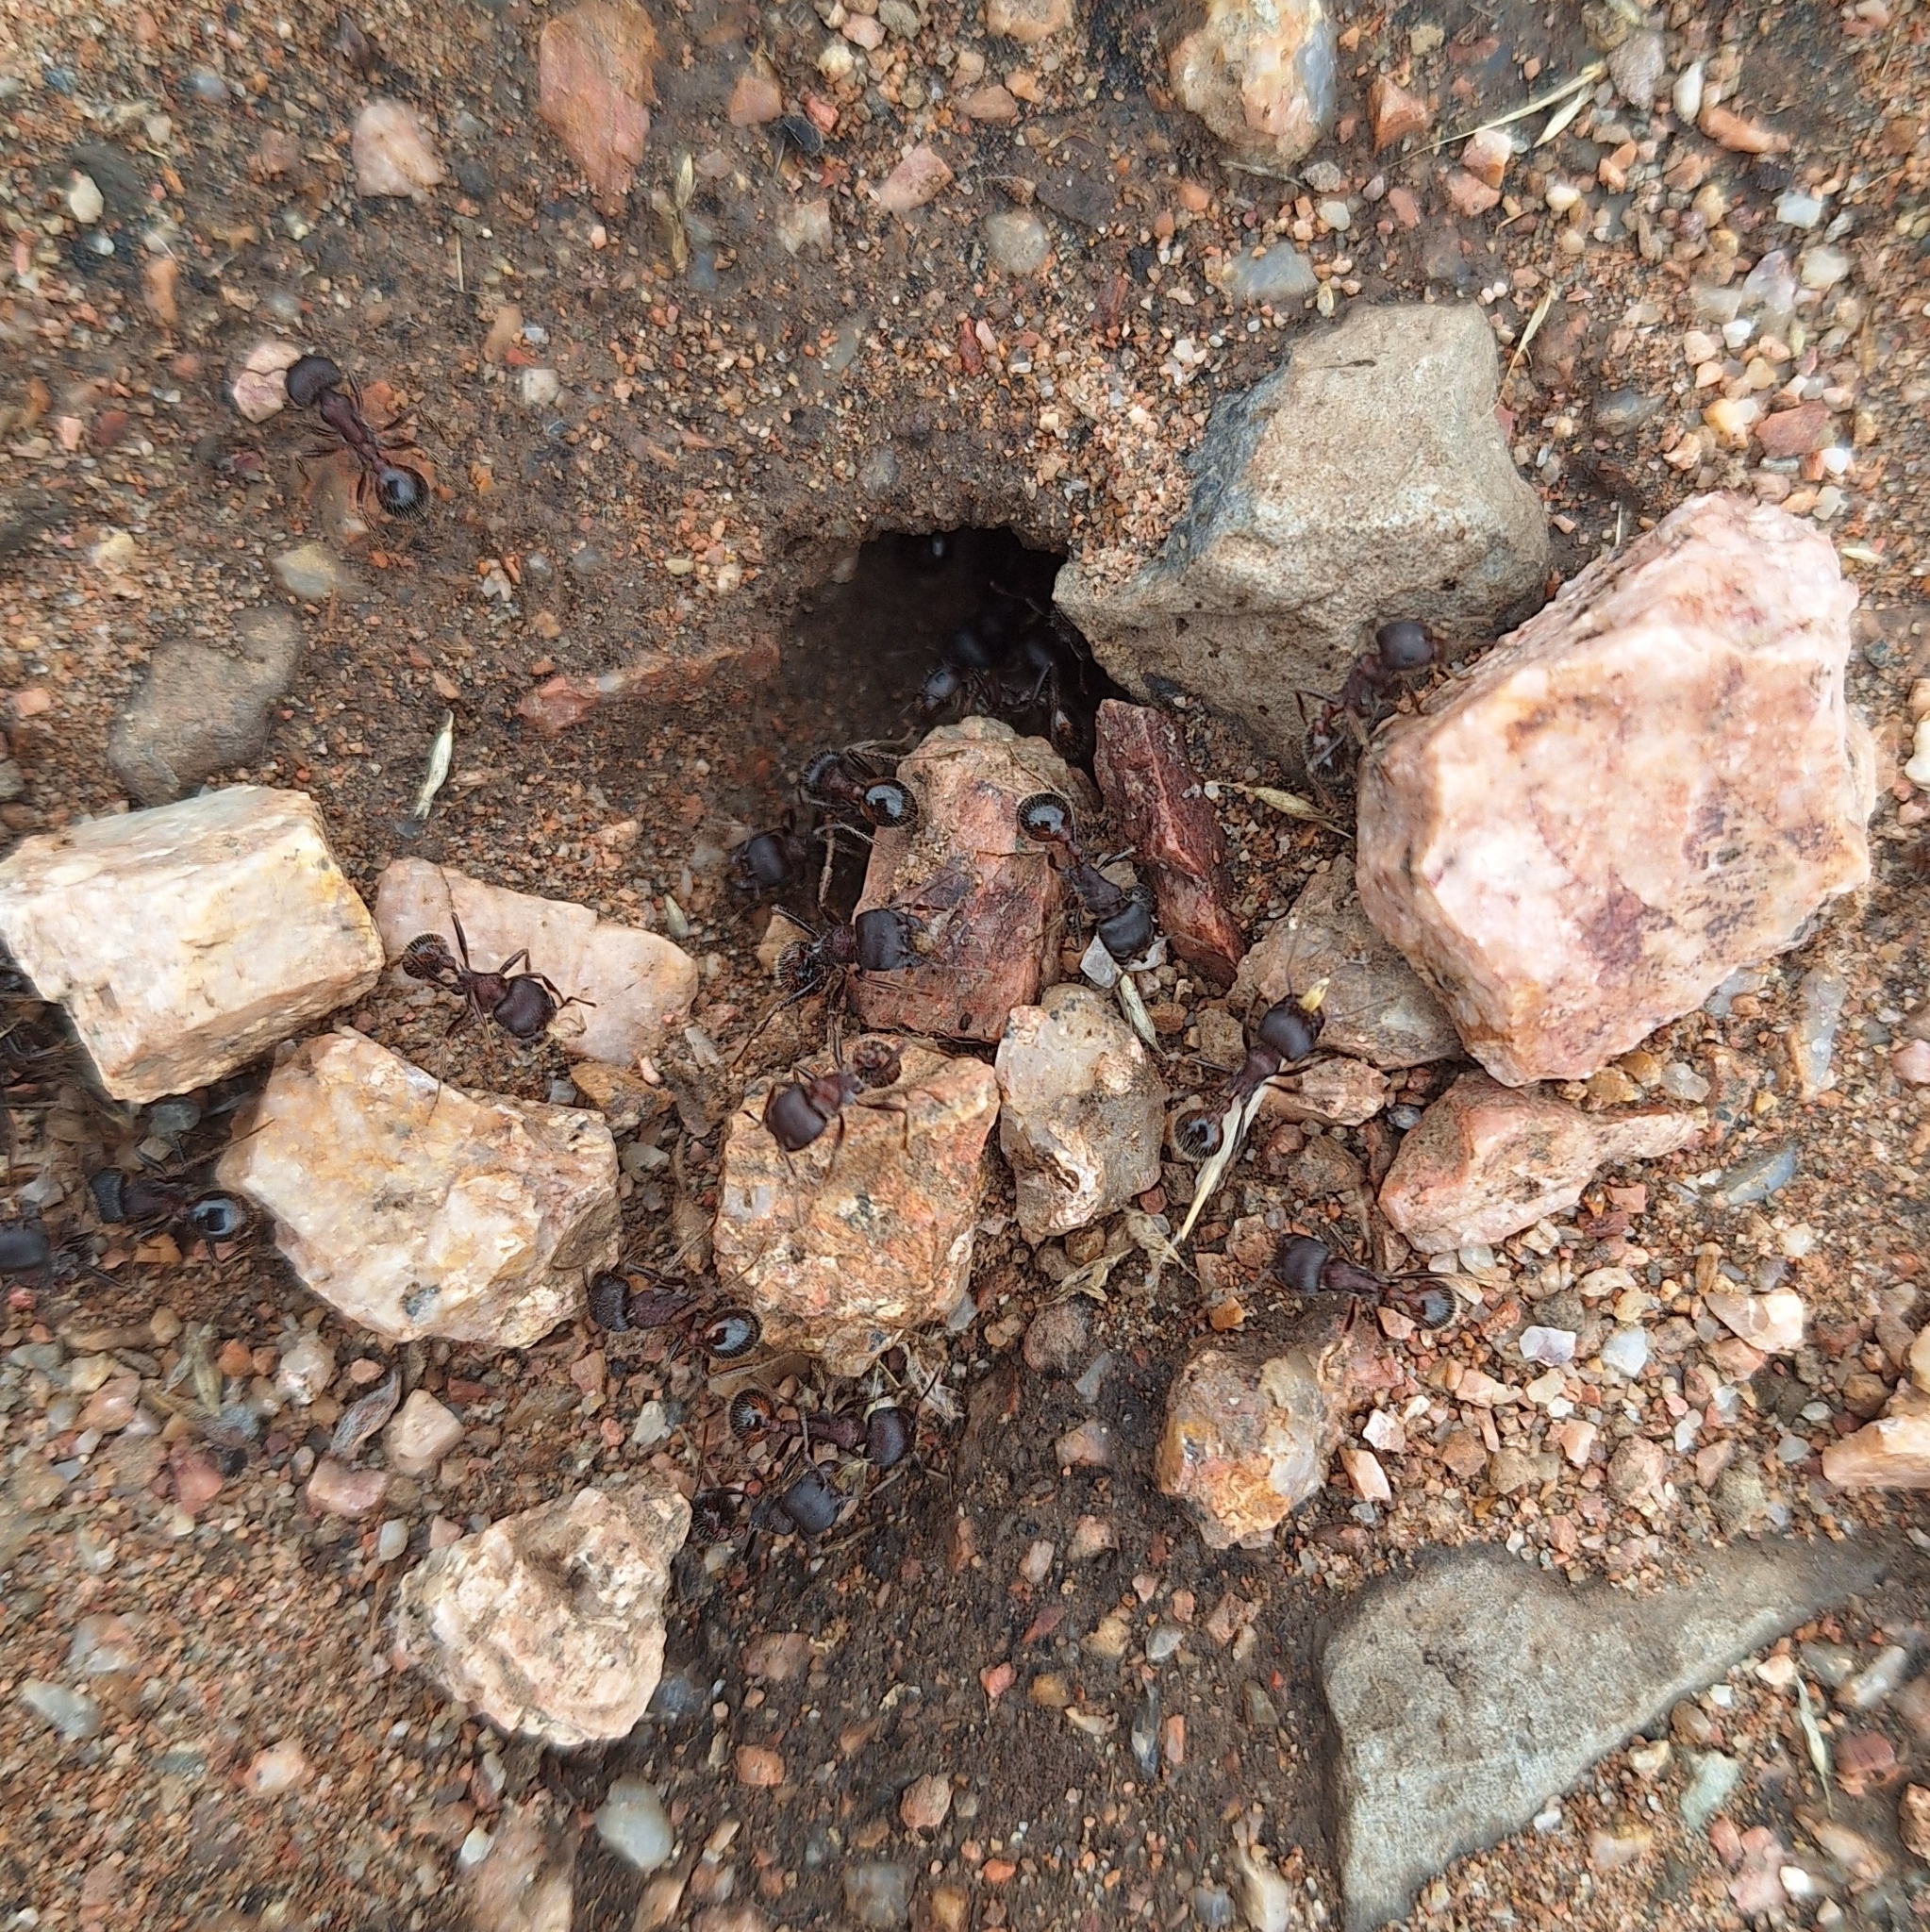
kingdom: Animalia
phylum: Arthropoda
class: Insecta
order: Hymenoptera
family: Formicidae
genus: Pogonomyrmex
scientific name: Pogonomyrmex rugosus
